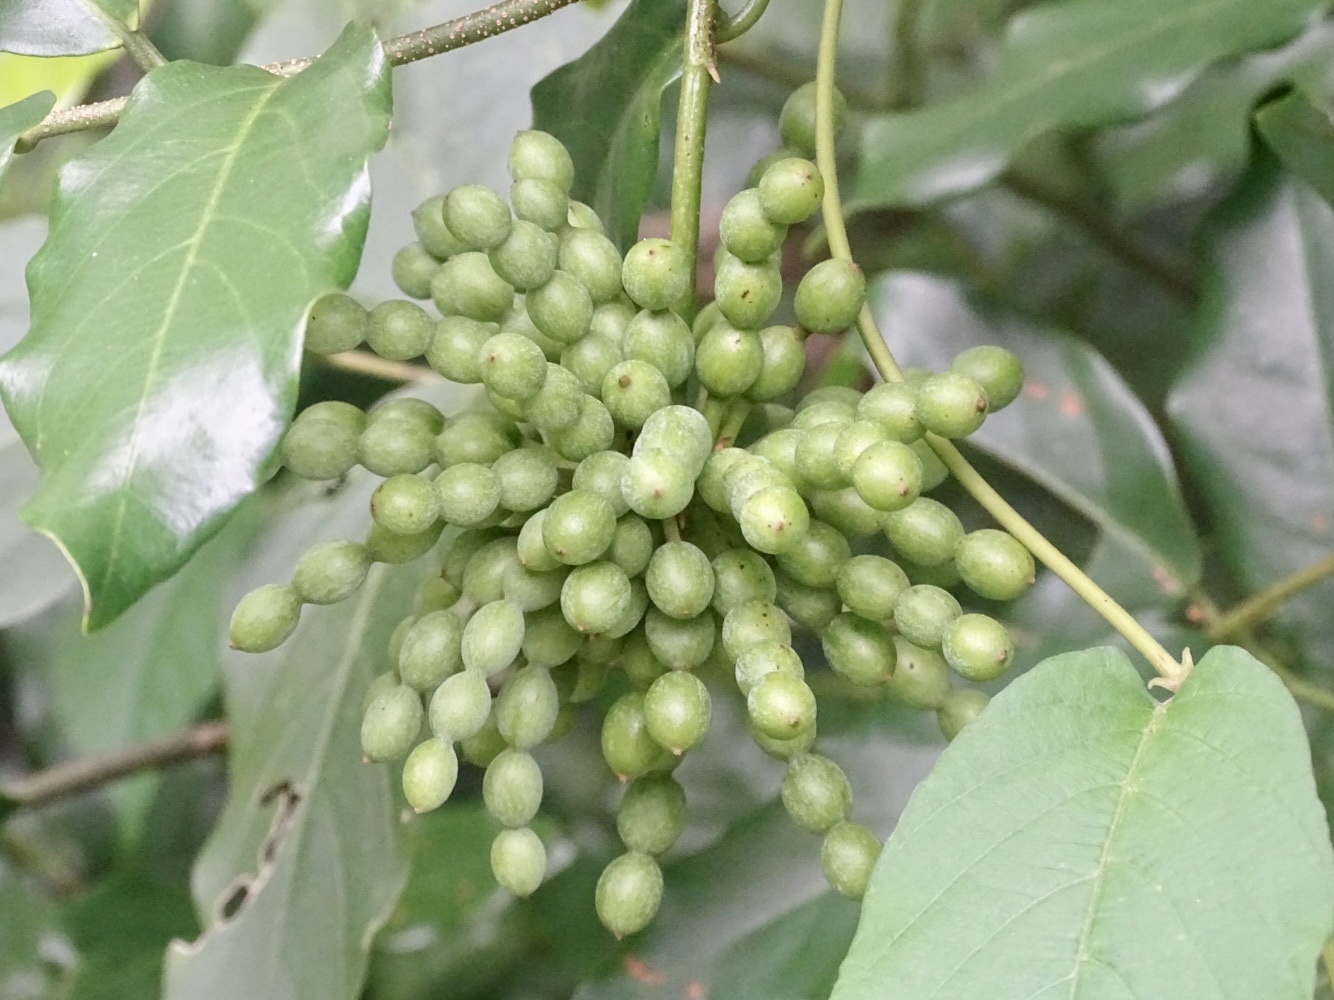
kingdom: Plantae
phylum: Tracheophyta
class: Magnoliopsida
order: Magnoliales
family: Annonaceae
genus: Desmos
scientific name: Desmos chinensis
